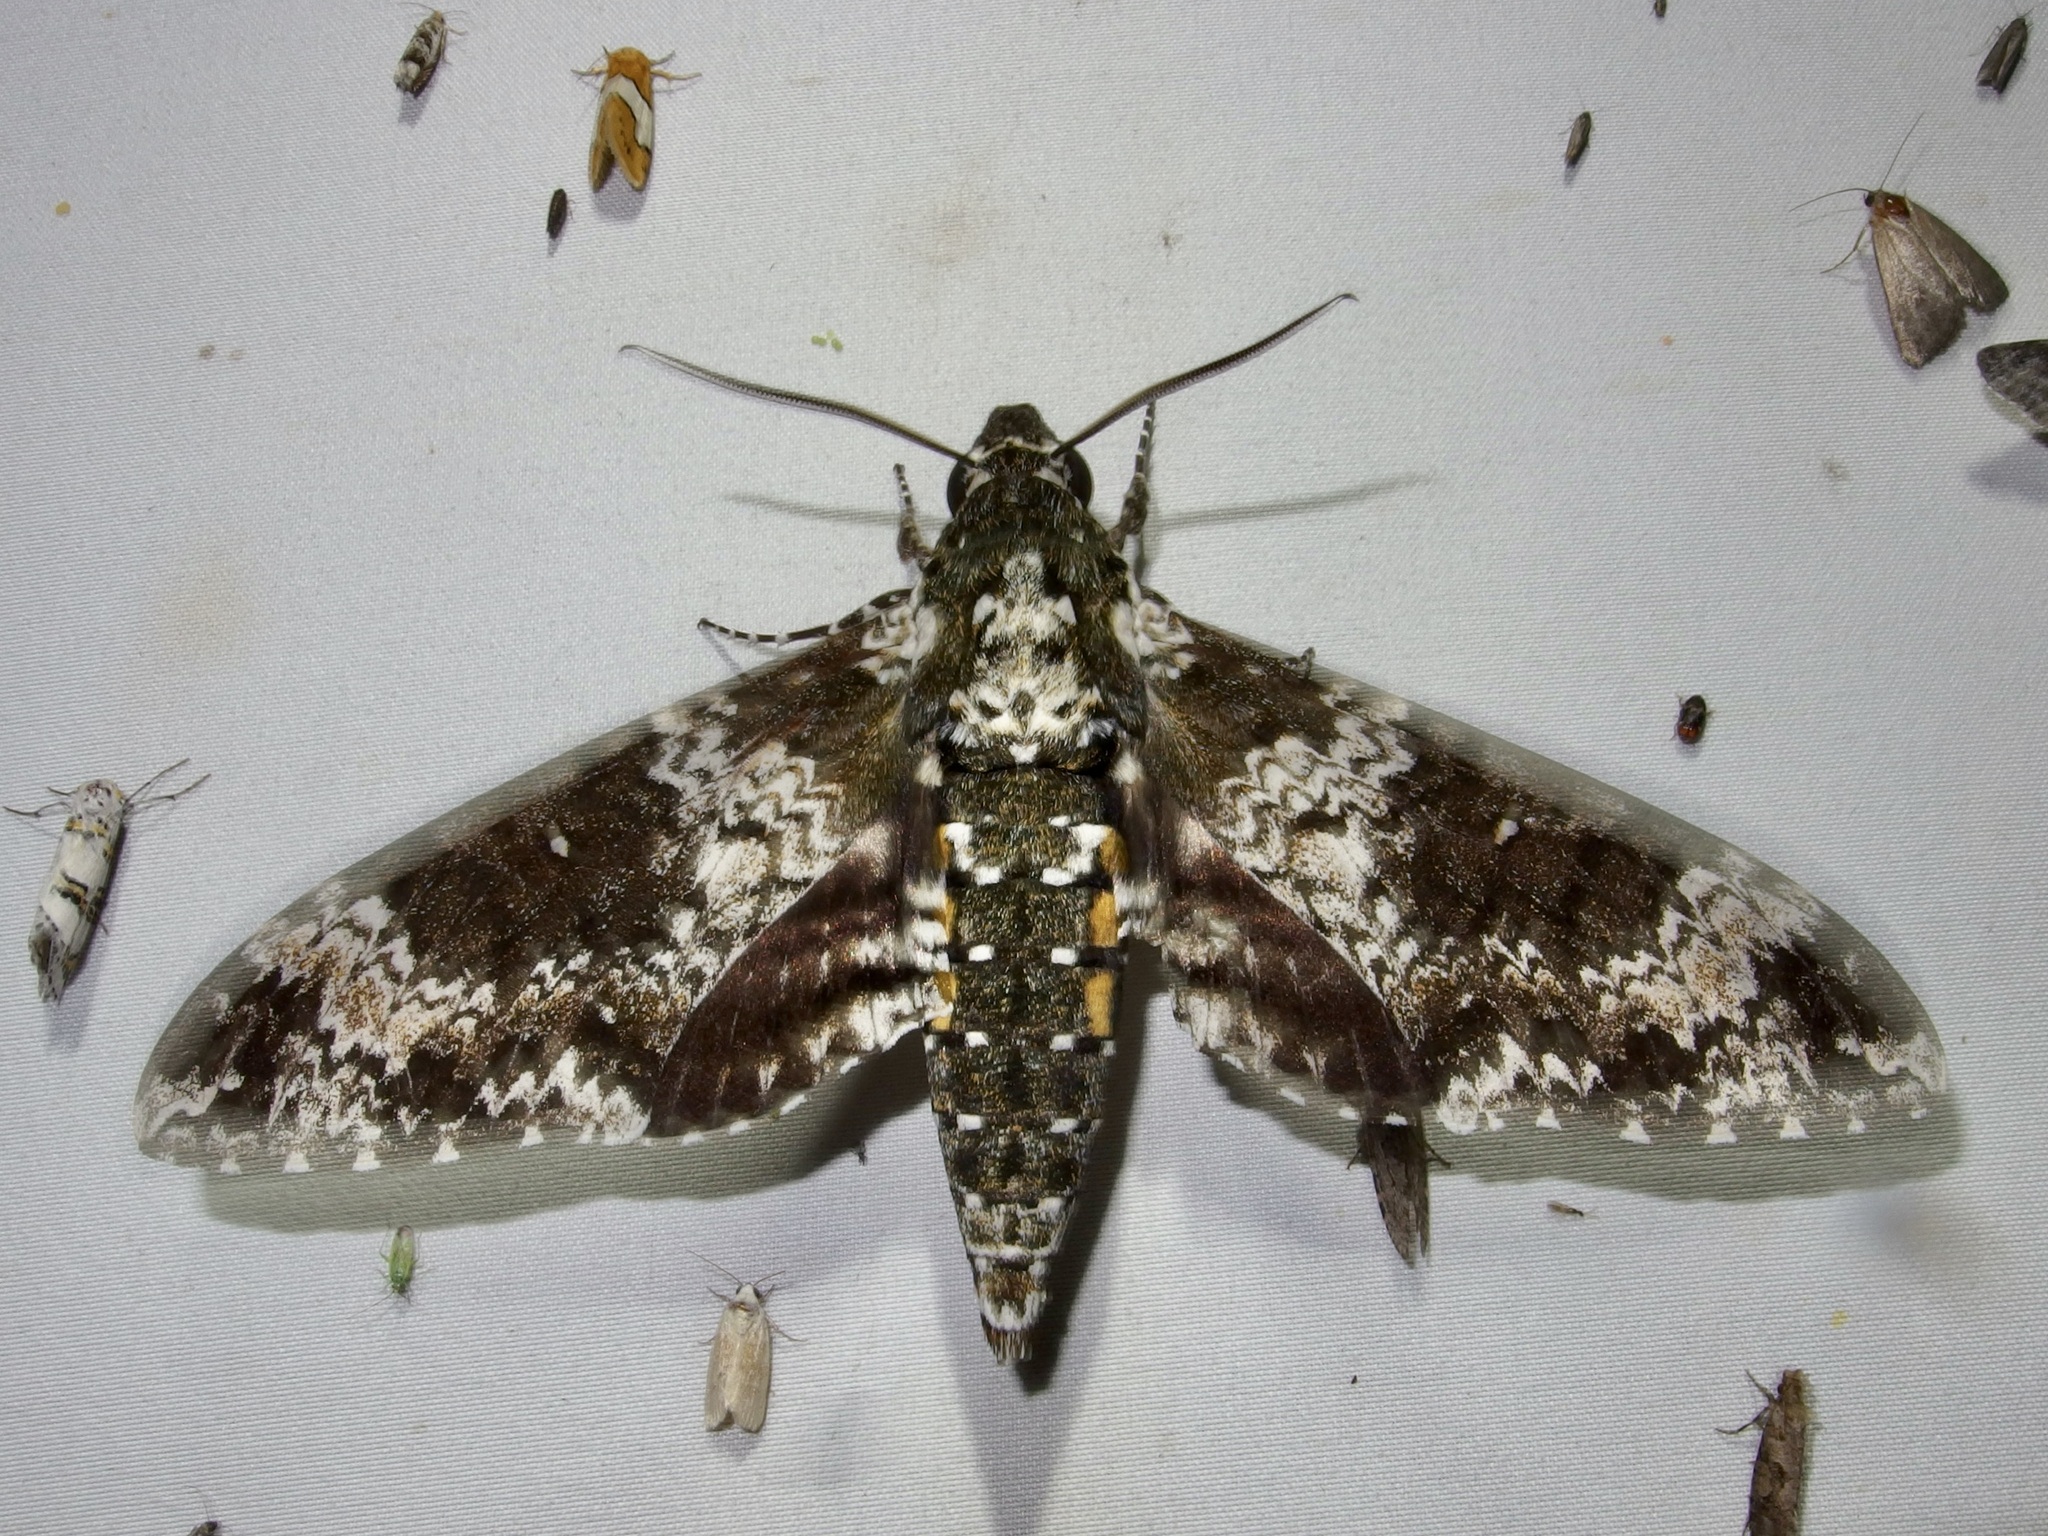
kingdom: Animalia
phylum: Arthropoda
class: Insecta
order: Lepidoptera
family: Sphingidae
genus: Manduca
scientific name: Manduca rustica
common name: Rustic sphinx
